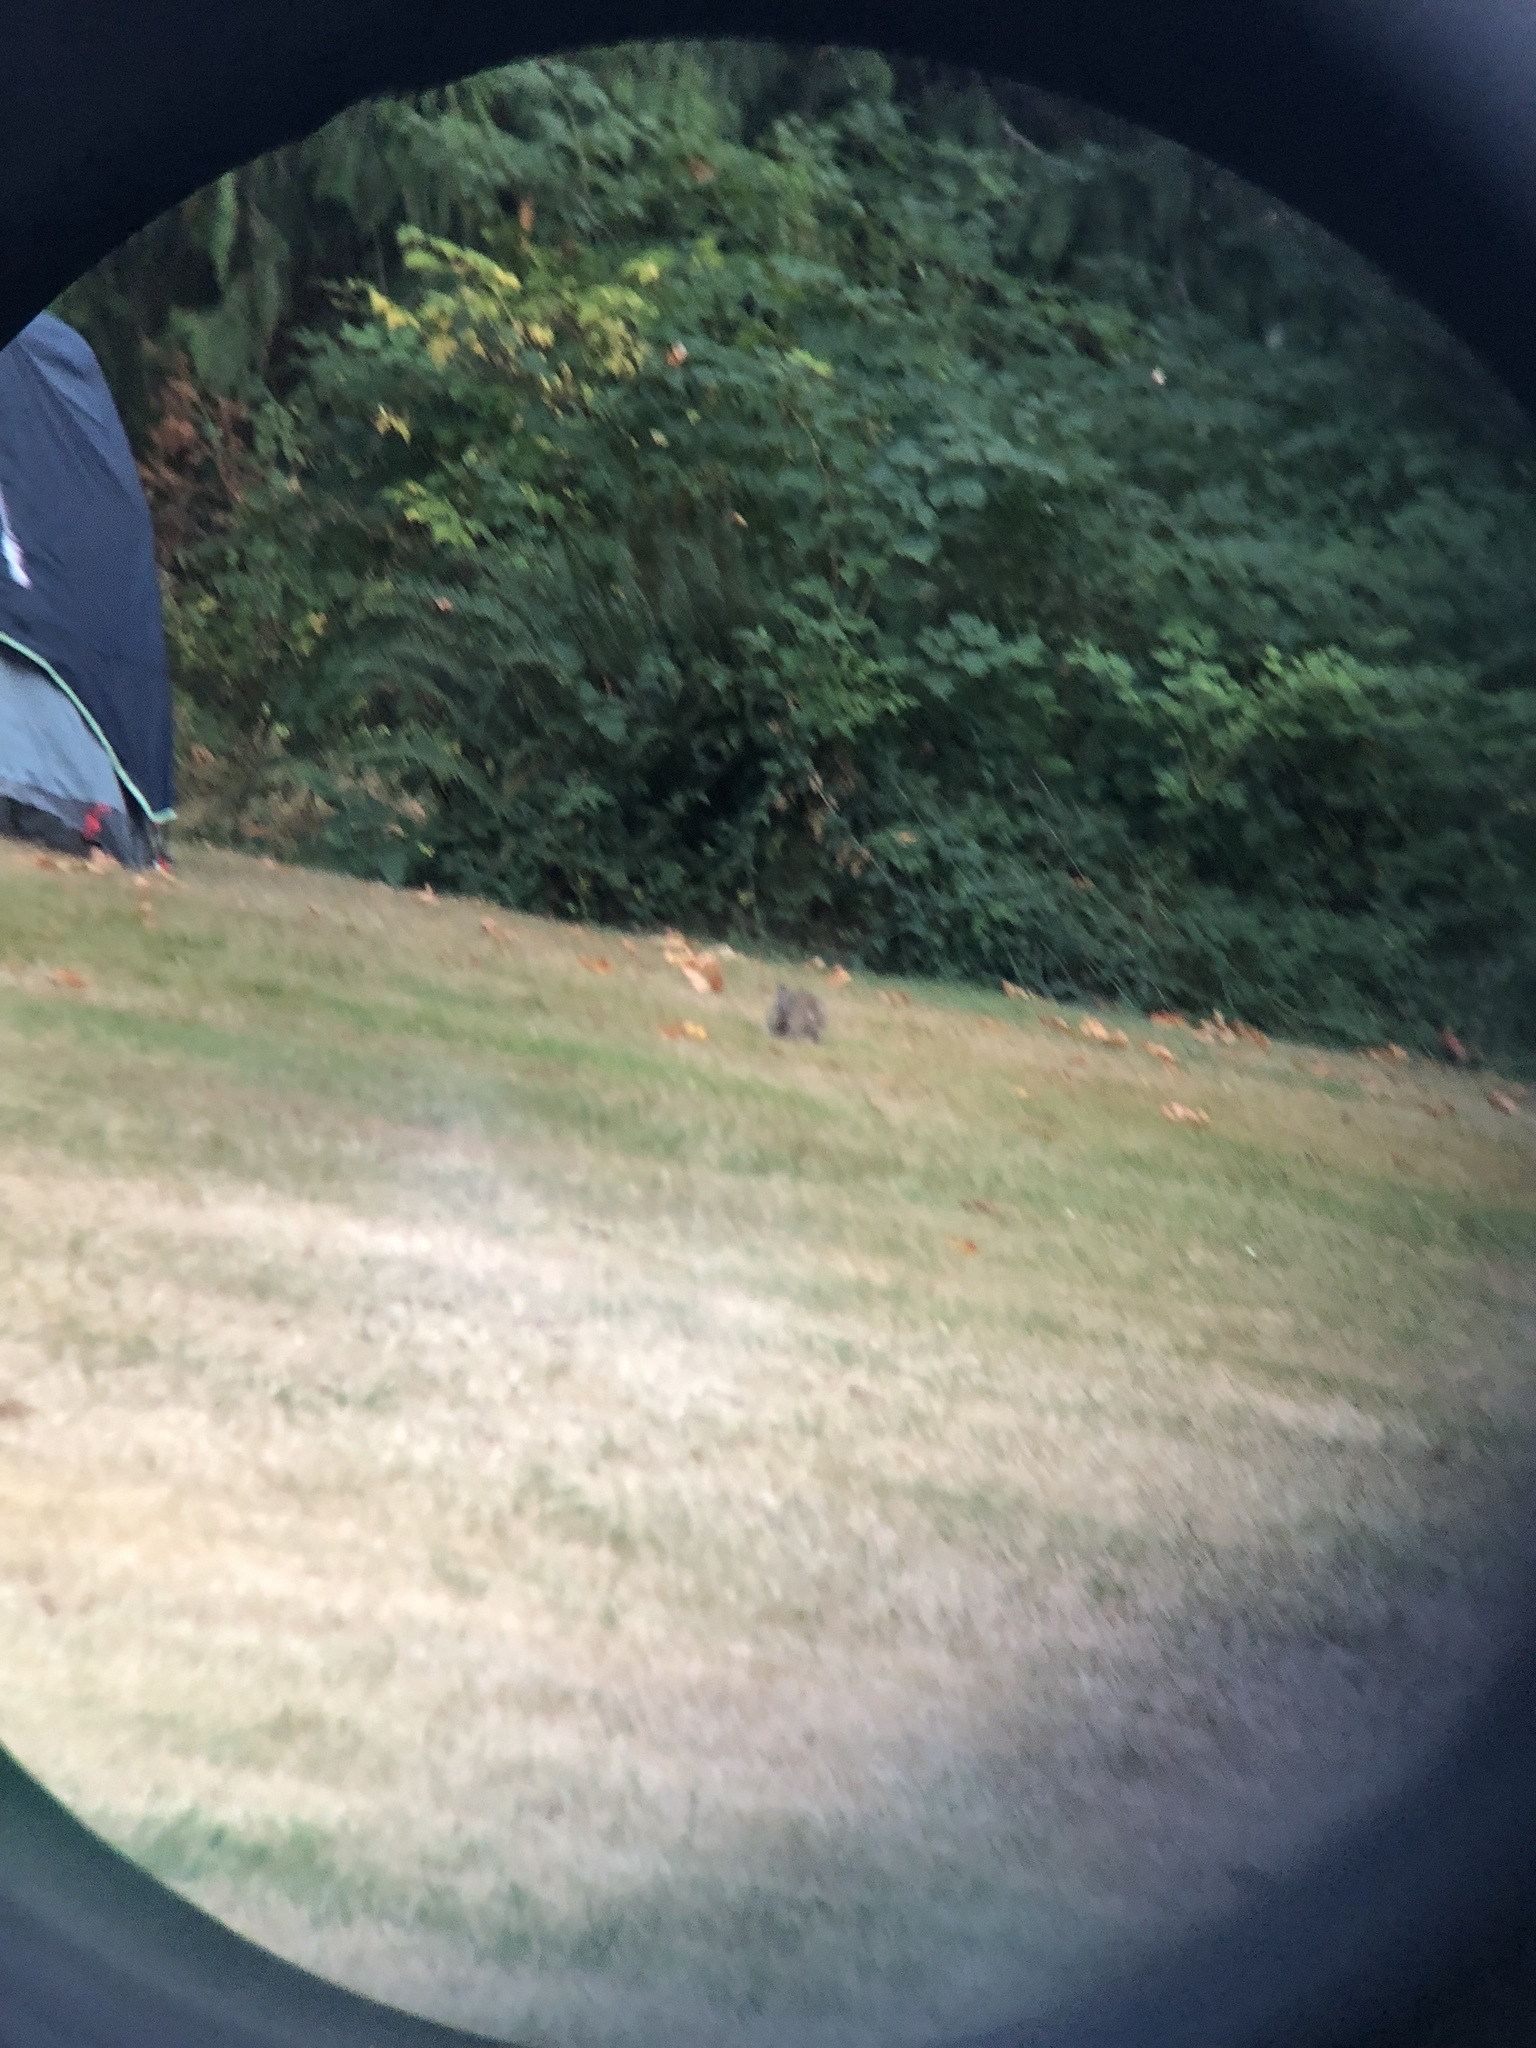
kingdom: Animalia
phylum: Chordata
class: Mammalia
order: Lagomorpha
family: Leporidae
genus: Sylvilagus
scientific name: Sylvilagus floridanus
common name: Eastern cottontail
